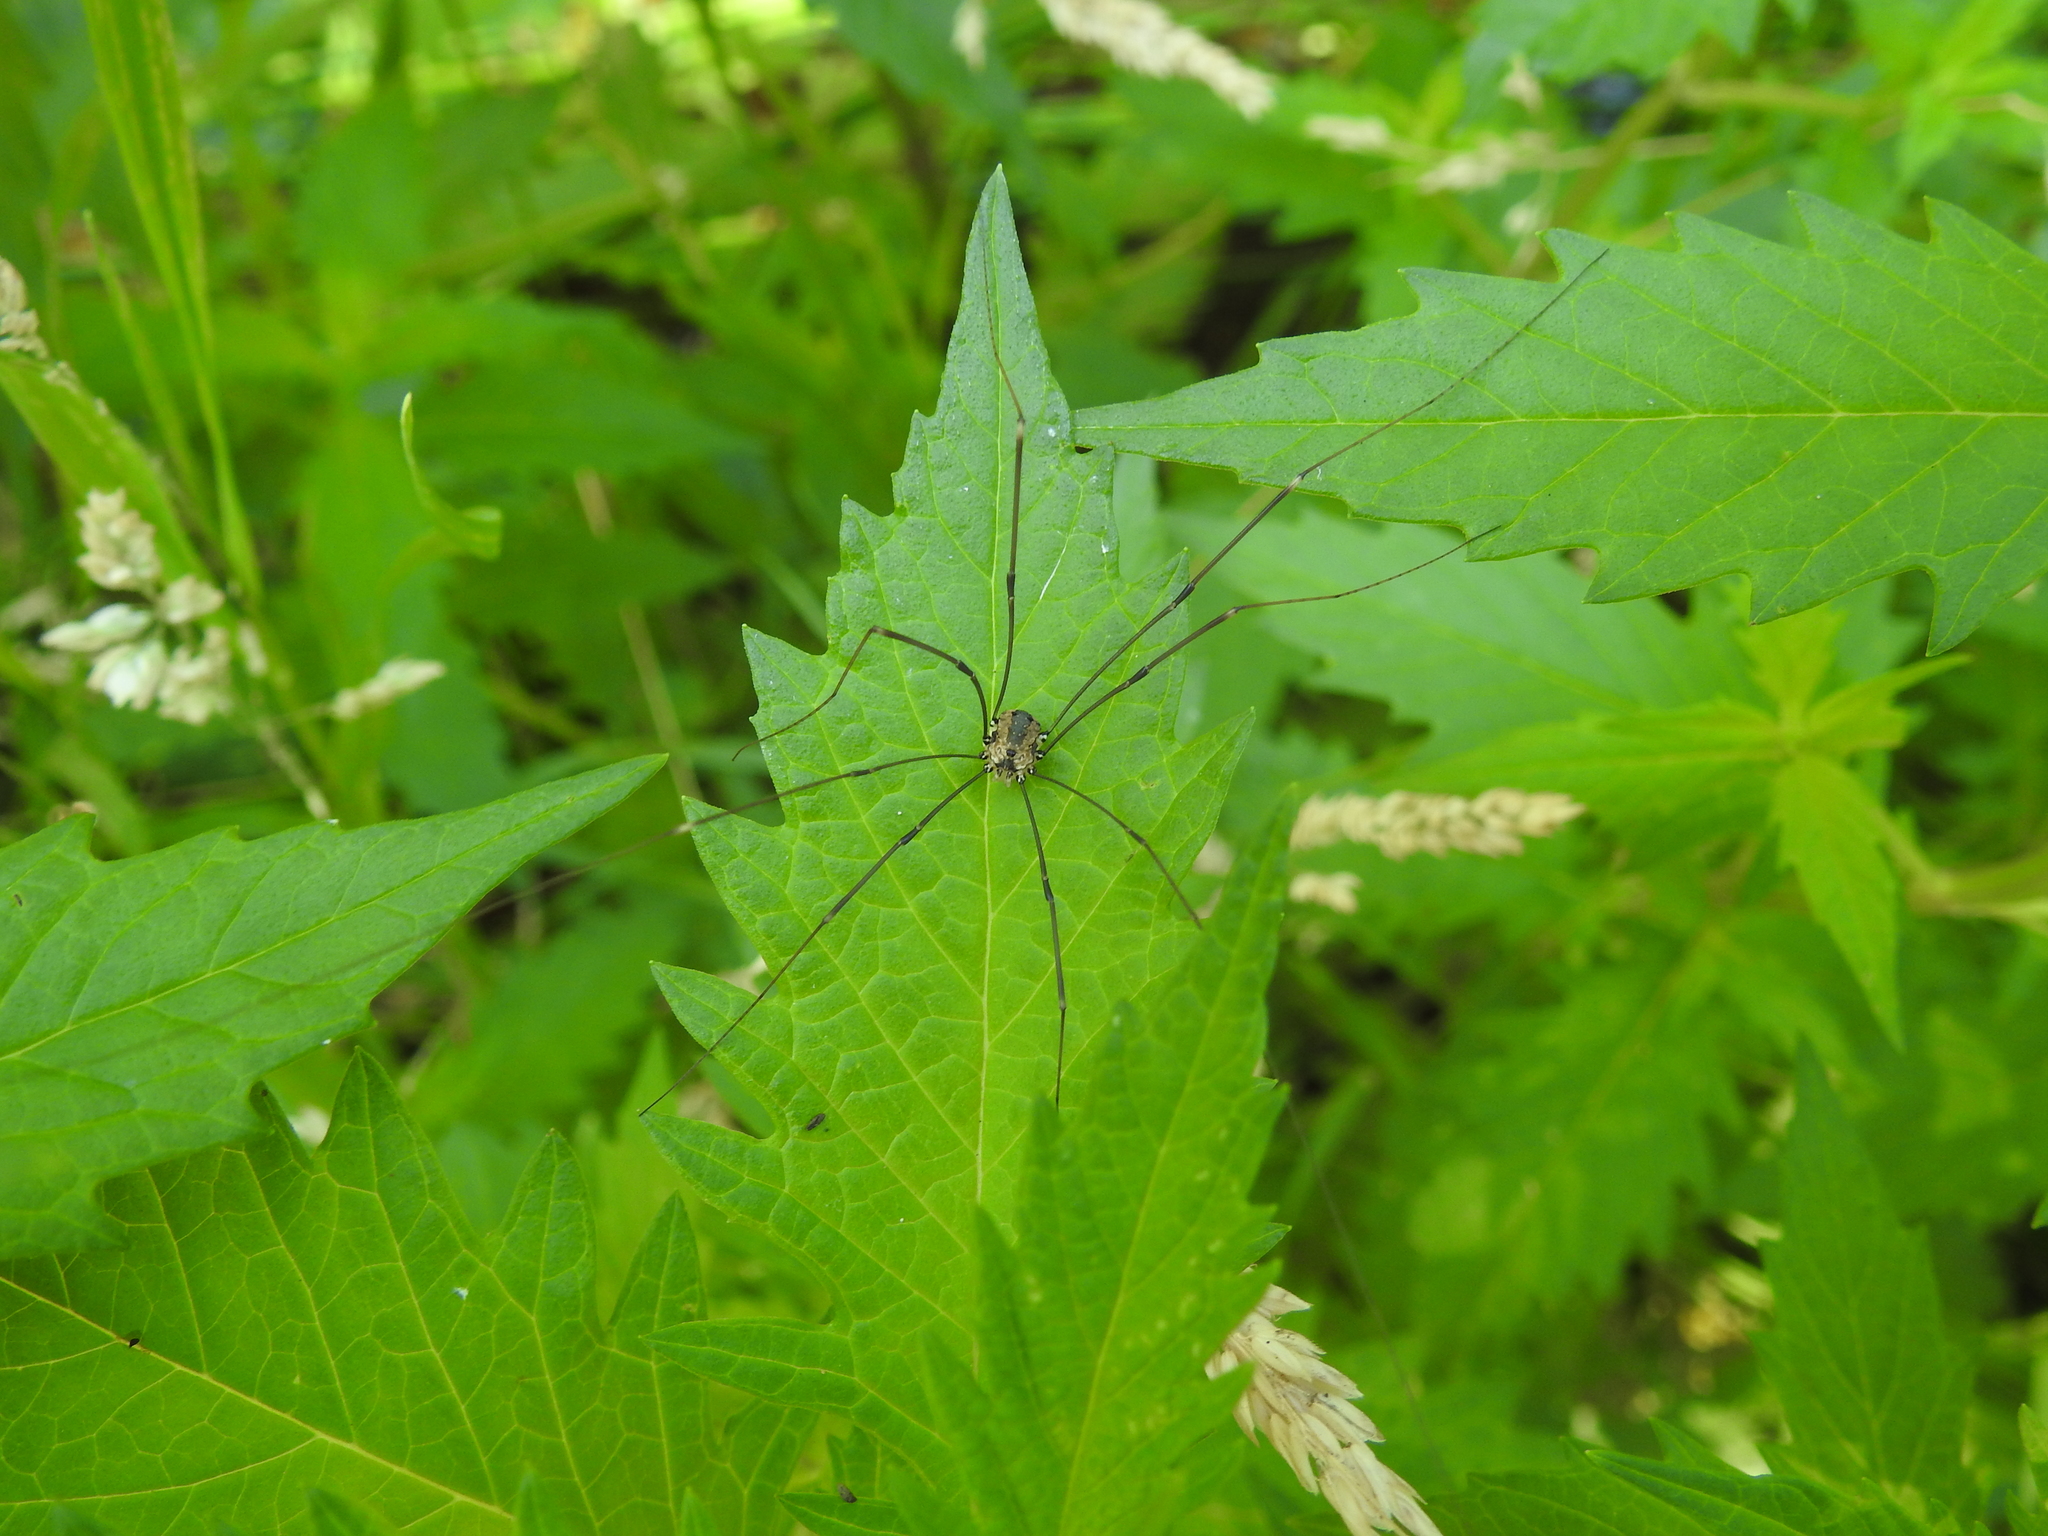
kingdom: Animalia
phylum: Arthropoda
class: Arachnida
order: Opiliones
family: Sclerosomatidae
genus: Leiobunum
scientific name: Leiobunum rotundum
